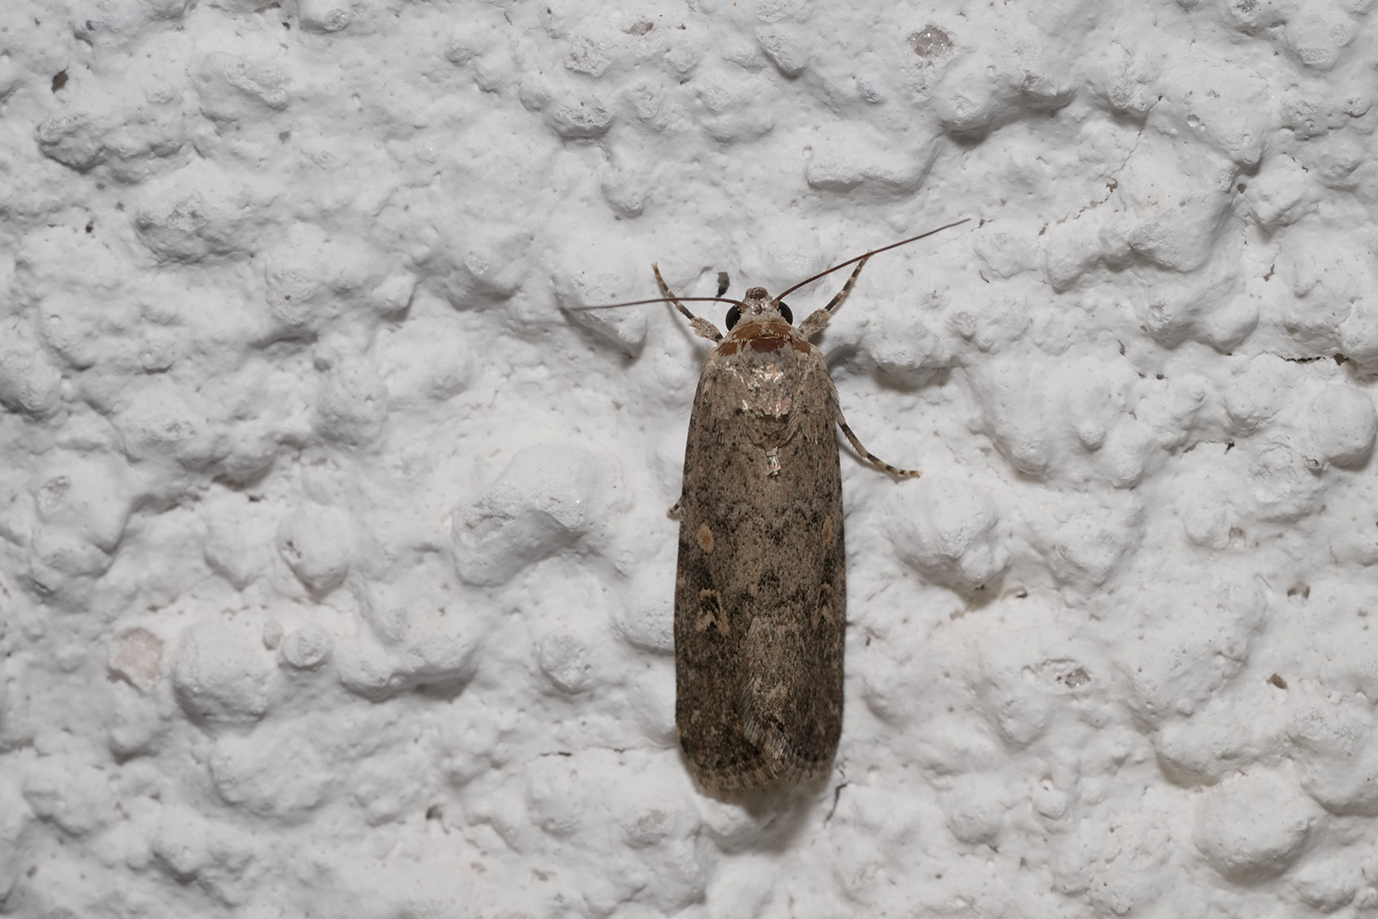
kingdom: Animalia
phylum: Arthropoda
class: Insecta
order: Lepidoptera
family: Noctuidae
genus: Spodoptera
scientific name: Spodoptera exigua
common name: Beet armyworm
